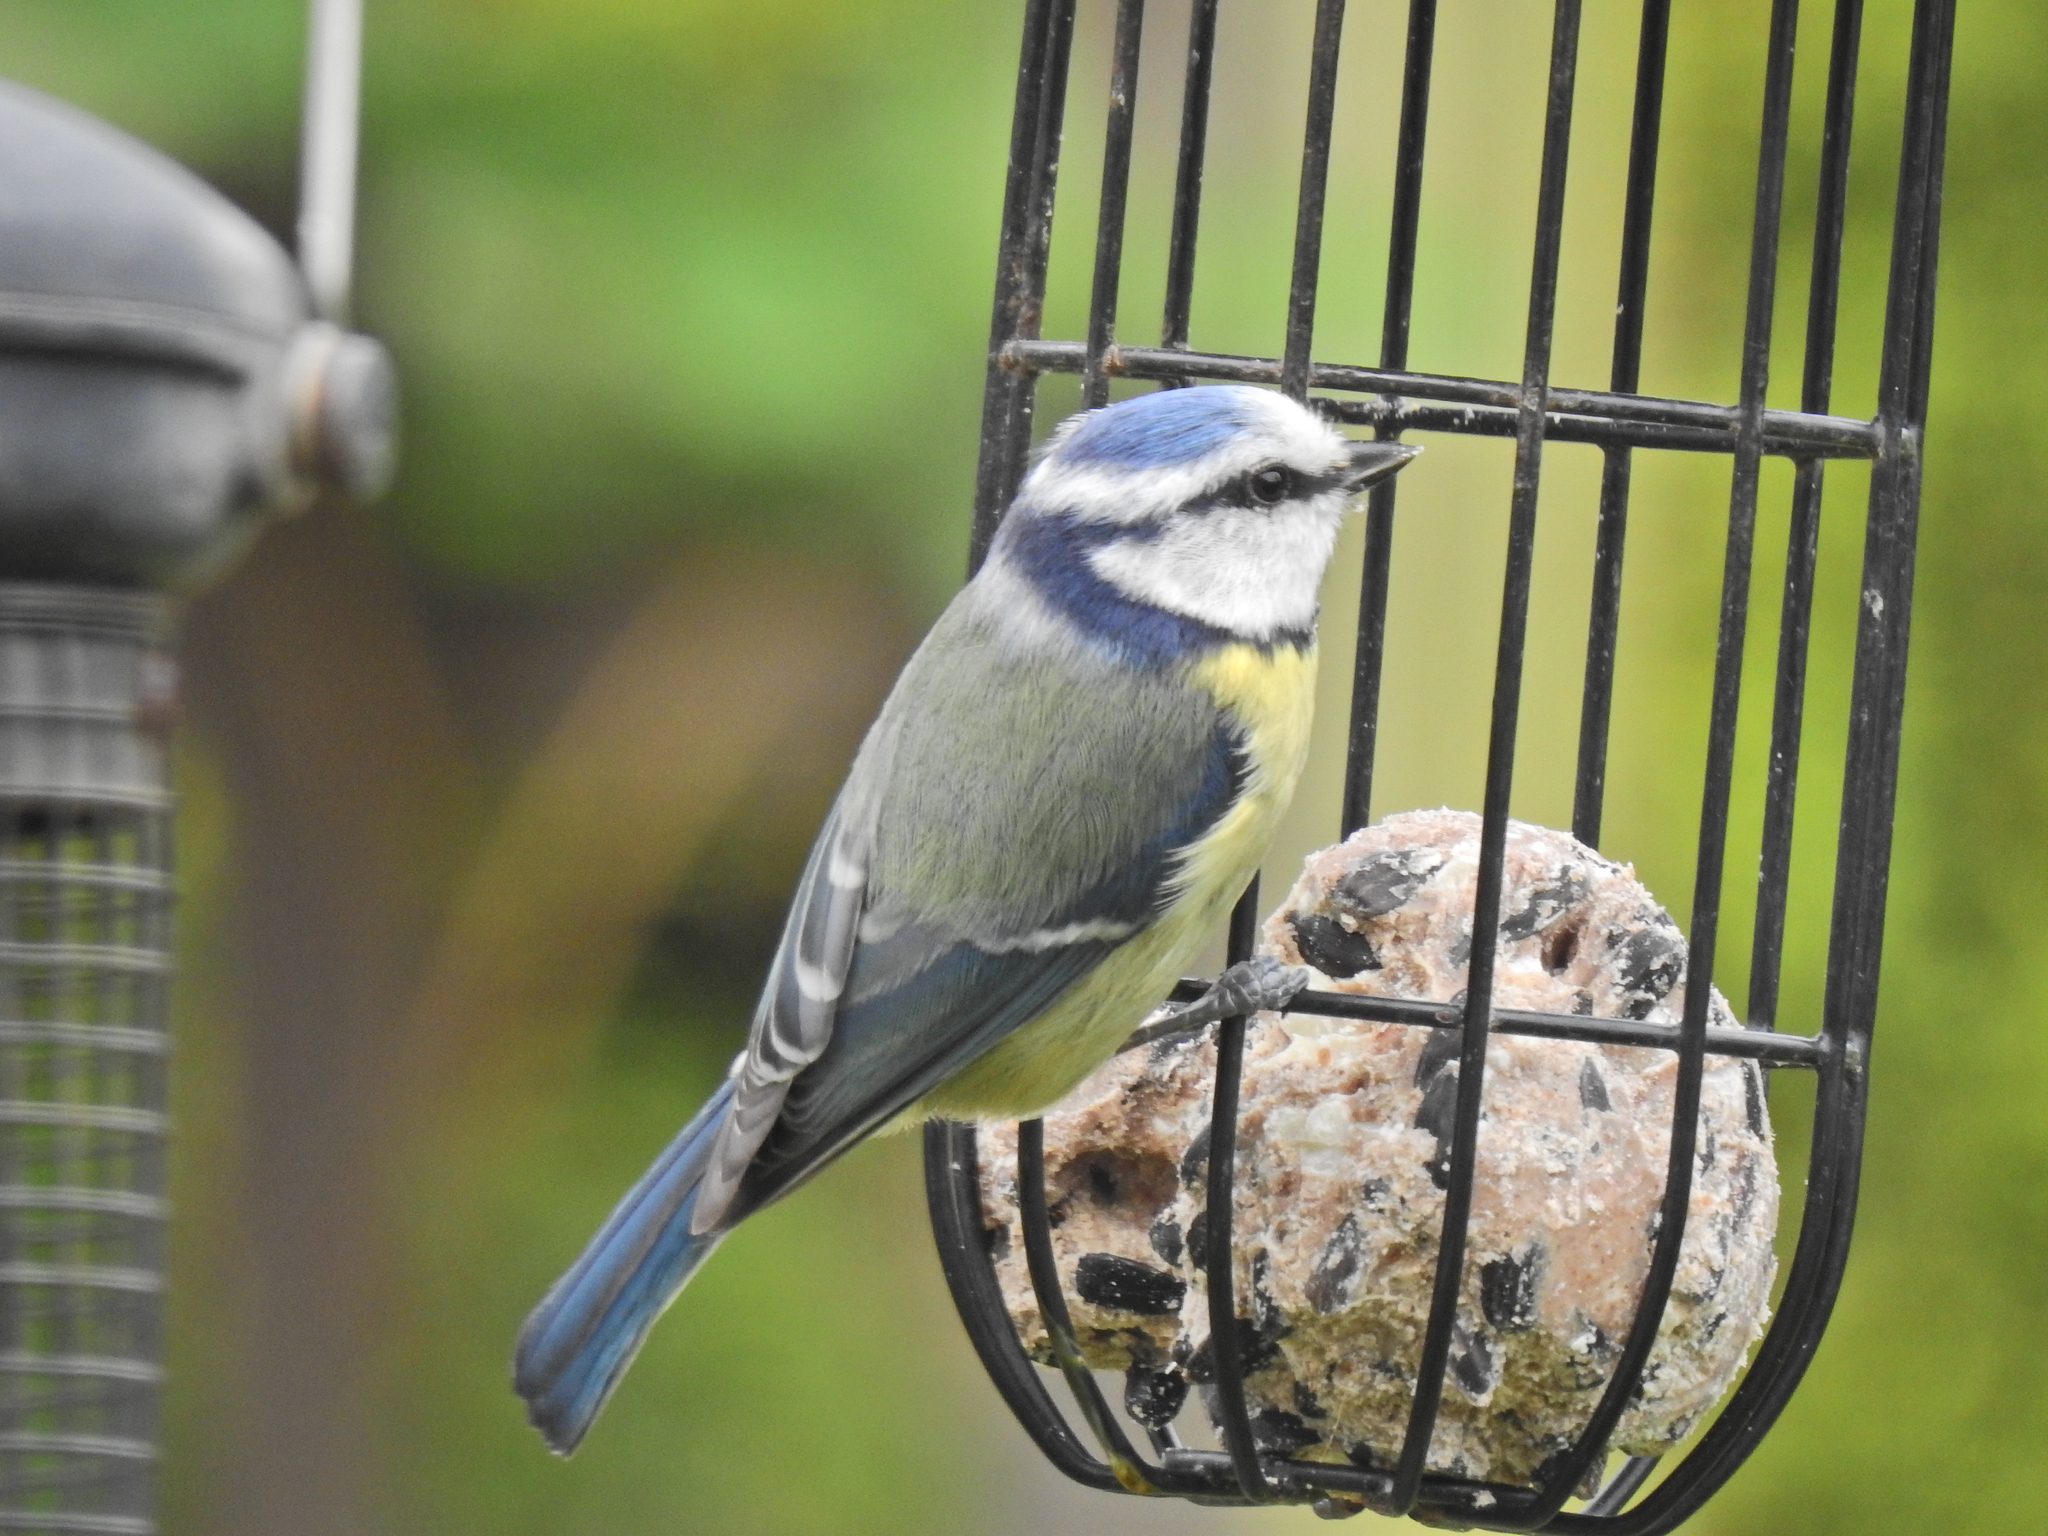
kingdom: Animalia
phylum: Chordata
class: Aves
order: Passeriformes
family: Paridae
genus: Cyanistes
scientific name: Cyanistes caeruleus
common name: Eurasian blue tit
